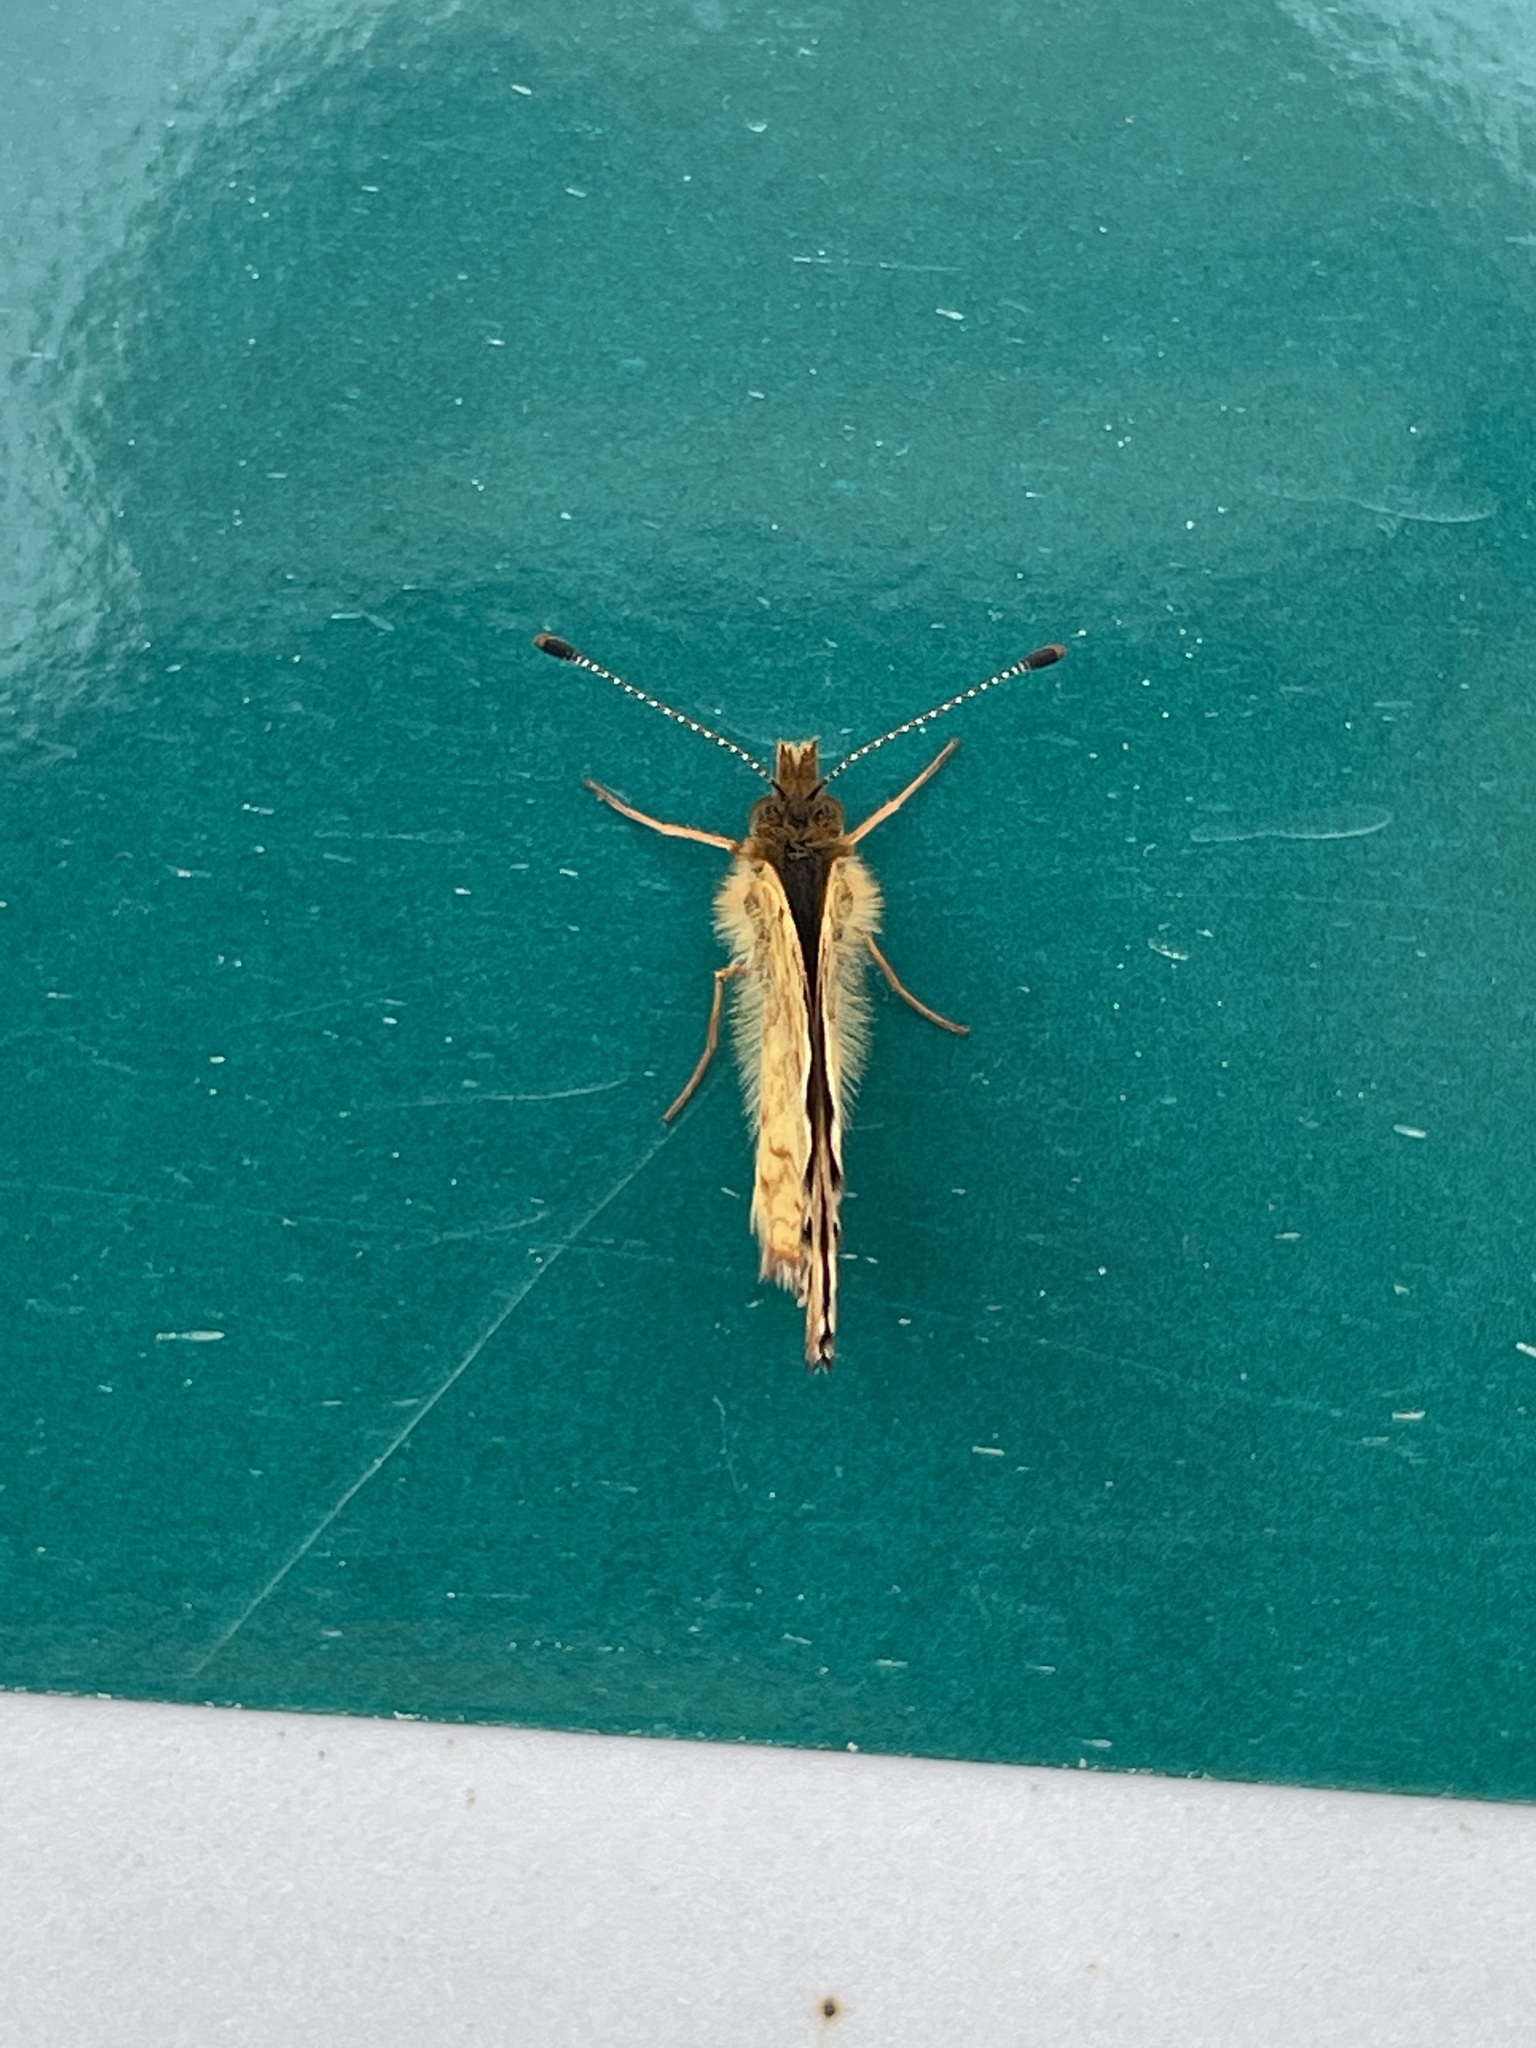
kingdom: Animalia
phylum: Arthropoda
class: Insecta
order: Lepidoptera
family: Nymphalidae
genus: Phyciodes
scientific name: Phyciodes tharos
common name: Pearl crescent
